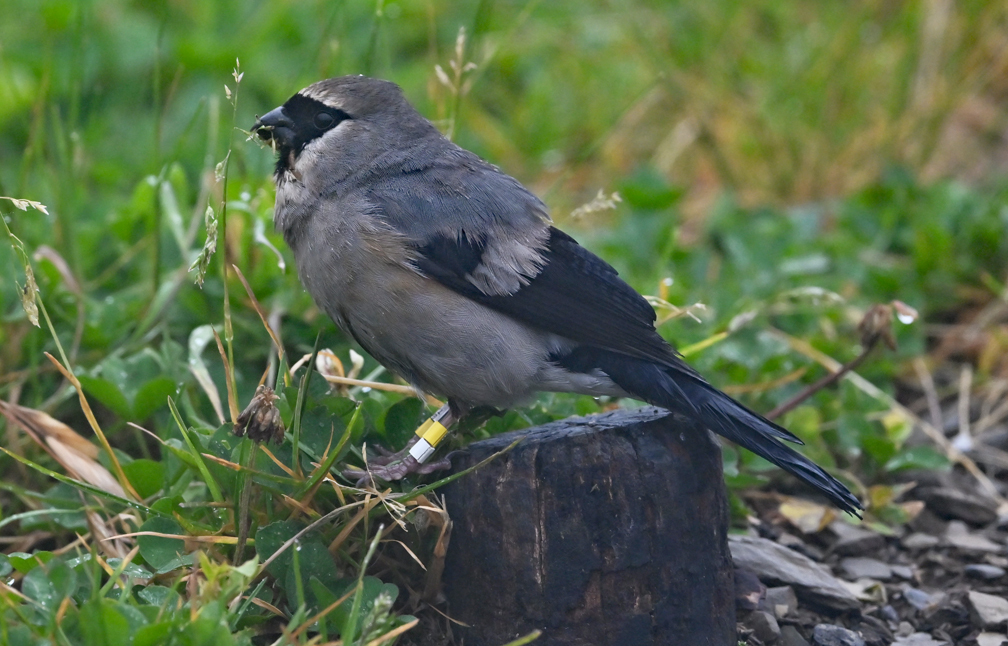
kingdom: Animalia
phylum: Chordata
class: Aves
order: Passeriformes
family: Fringillidae
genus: Pyrrhula
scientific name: Pyrrhula owstoni
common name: Taiwan bullfinch
